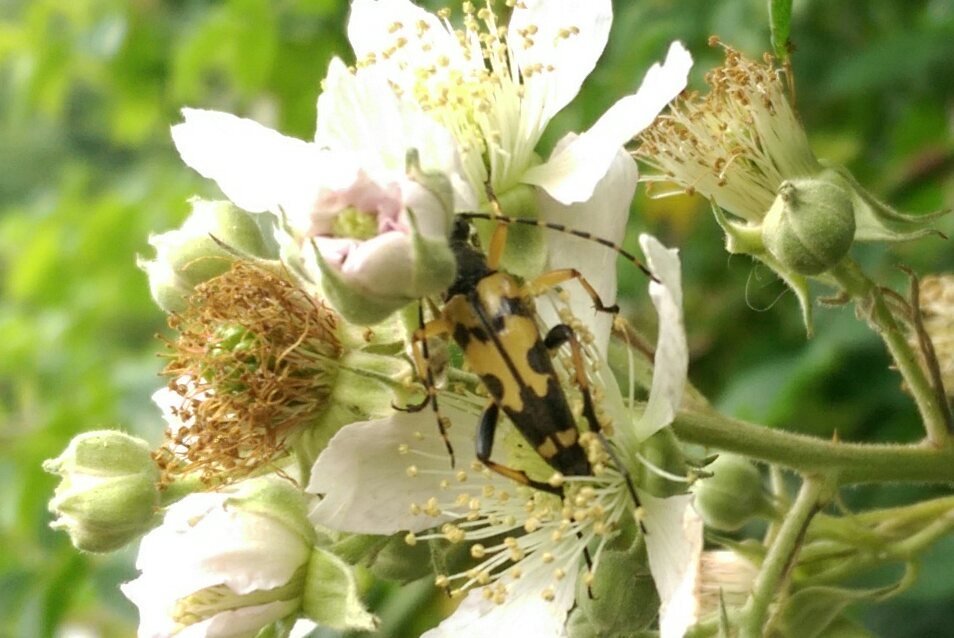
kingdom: Animalia
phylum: Arthropoda
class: Insecta
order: Coleoptera
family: Cerambycidae
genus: Rutpela
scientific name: Rutpela maculata
